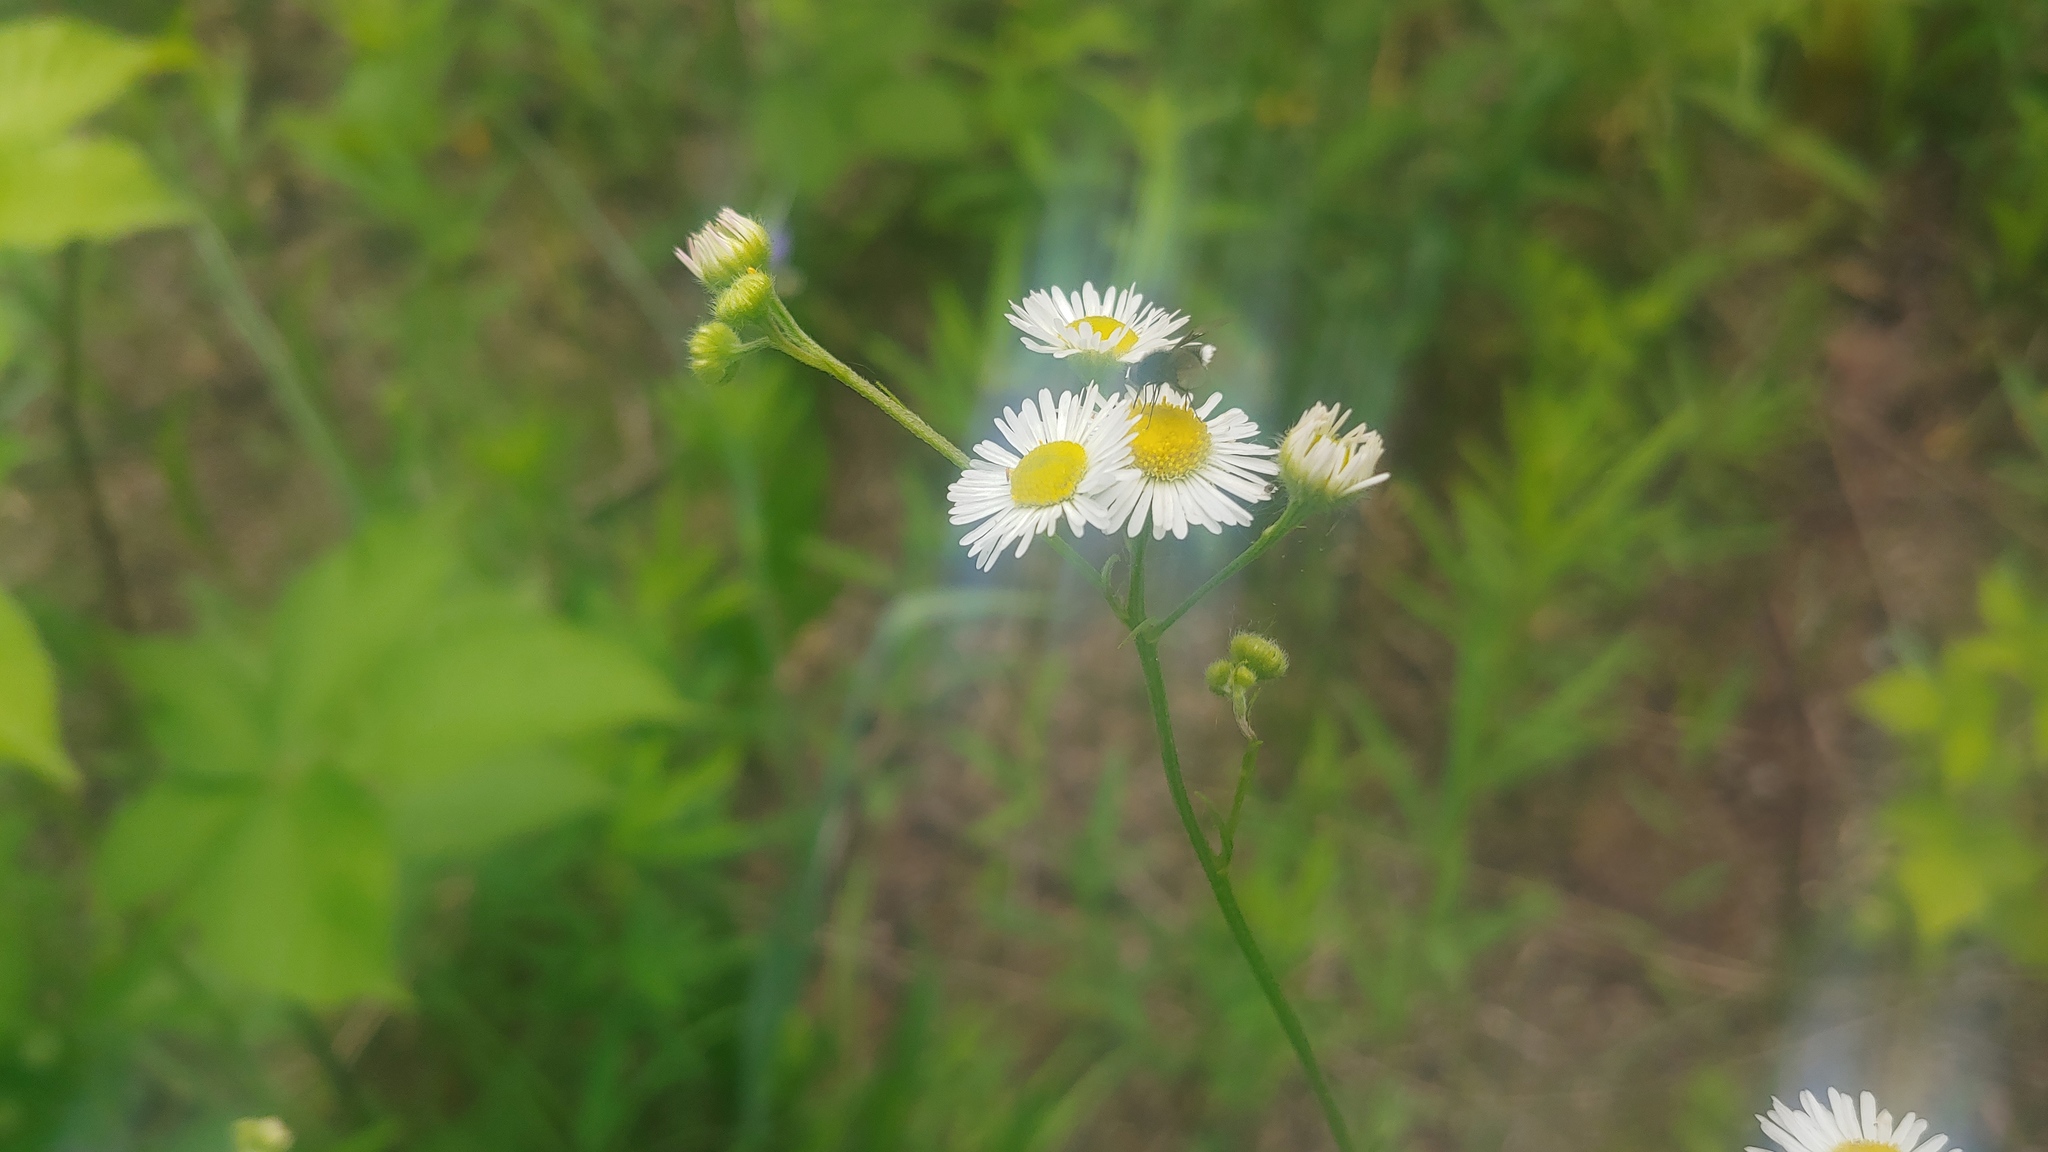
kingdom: Animalia
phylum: Arthropoda
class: Insecta
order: Diptera
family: Bombyliidae
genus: Ogcodocera
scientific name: Ogcodocera leucoprocta
